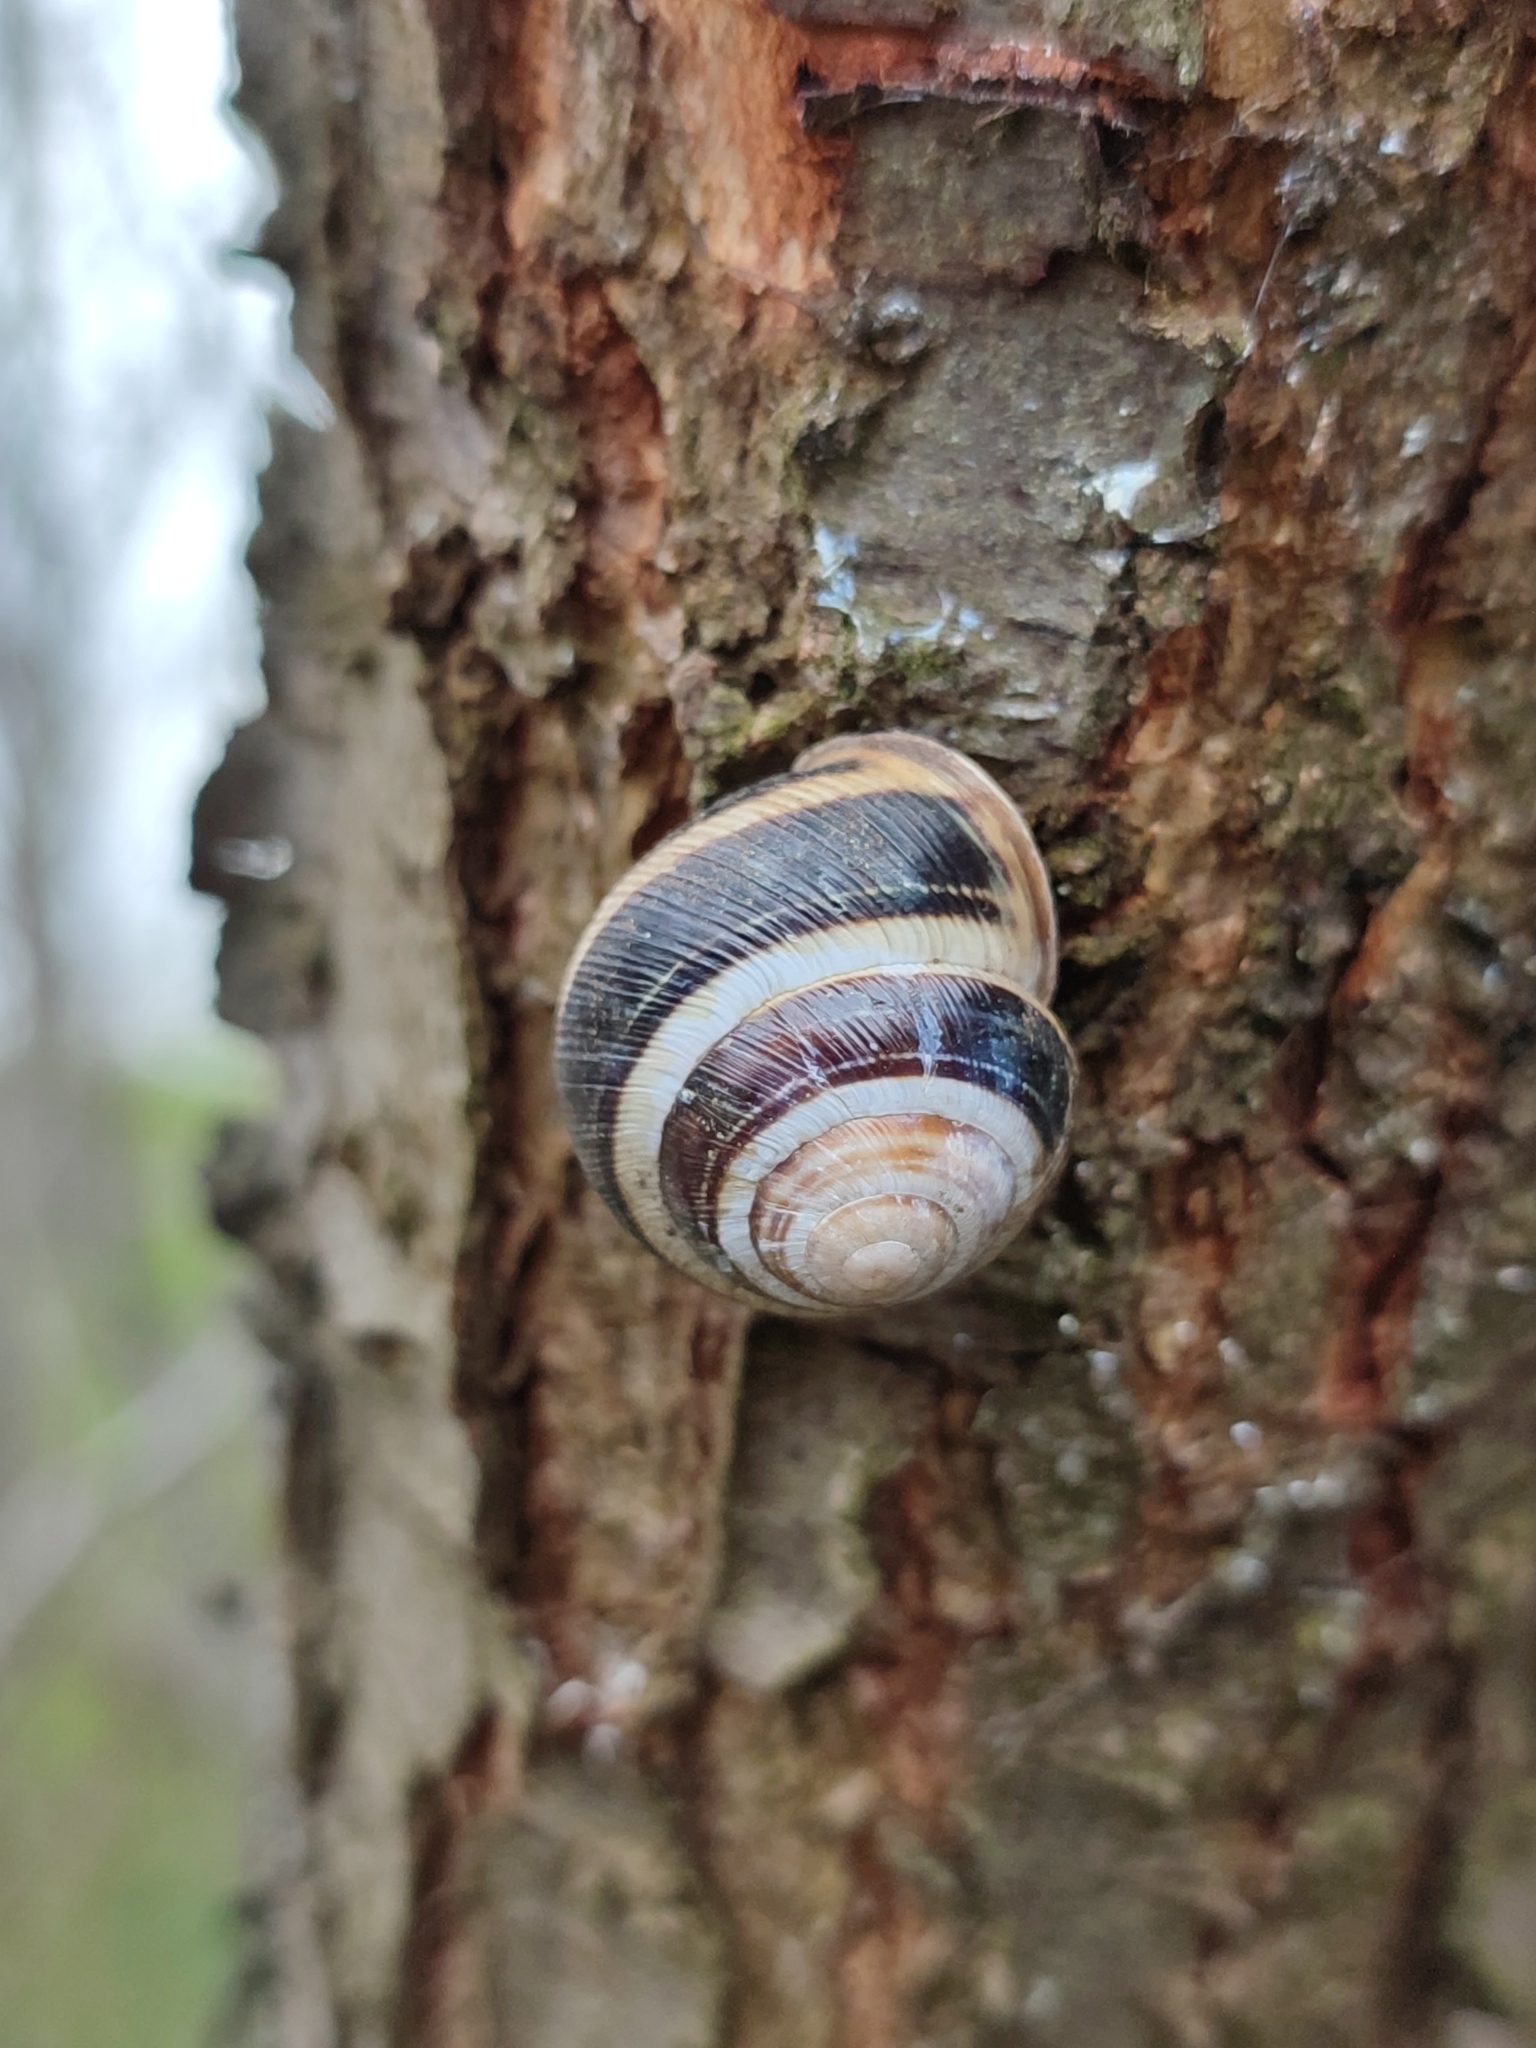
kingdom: Animalia
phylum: Mollusca
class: Gastropoda
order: Stylommatophora
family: Helicidae
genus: Caucasotachea
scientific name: Caucasotachea vindobonensis
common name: European helicid land snail
